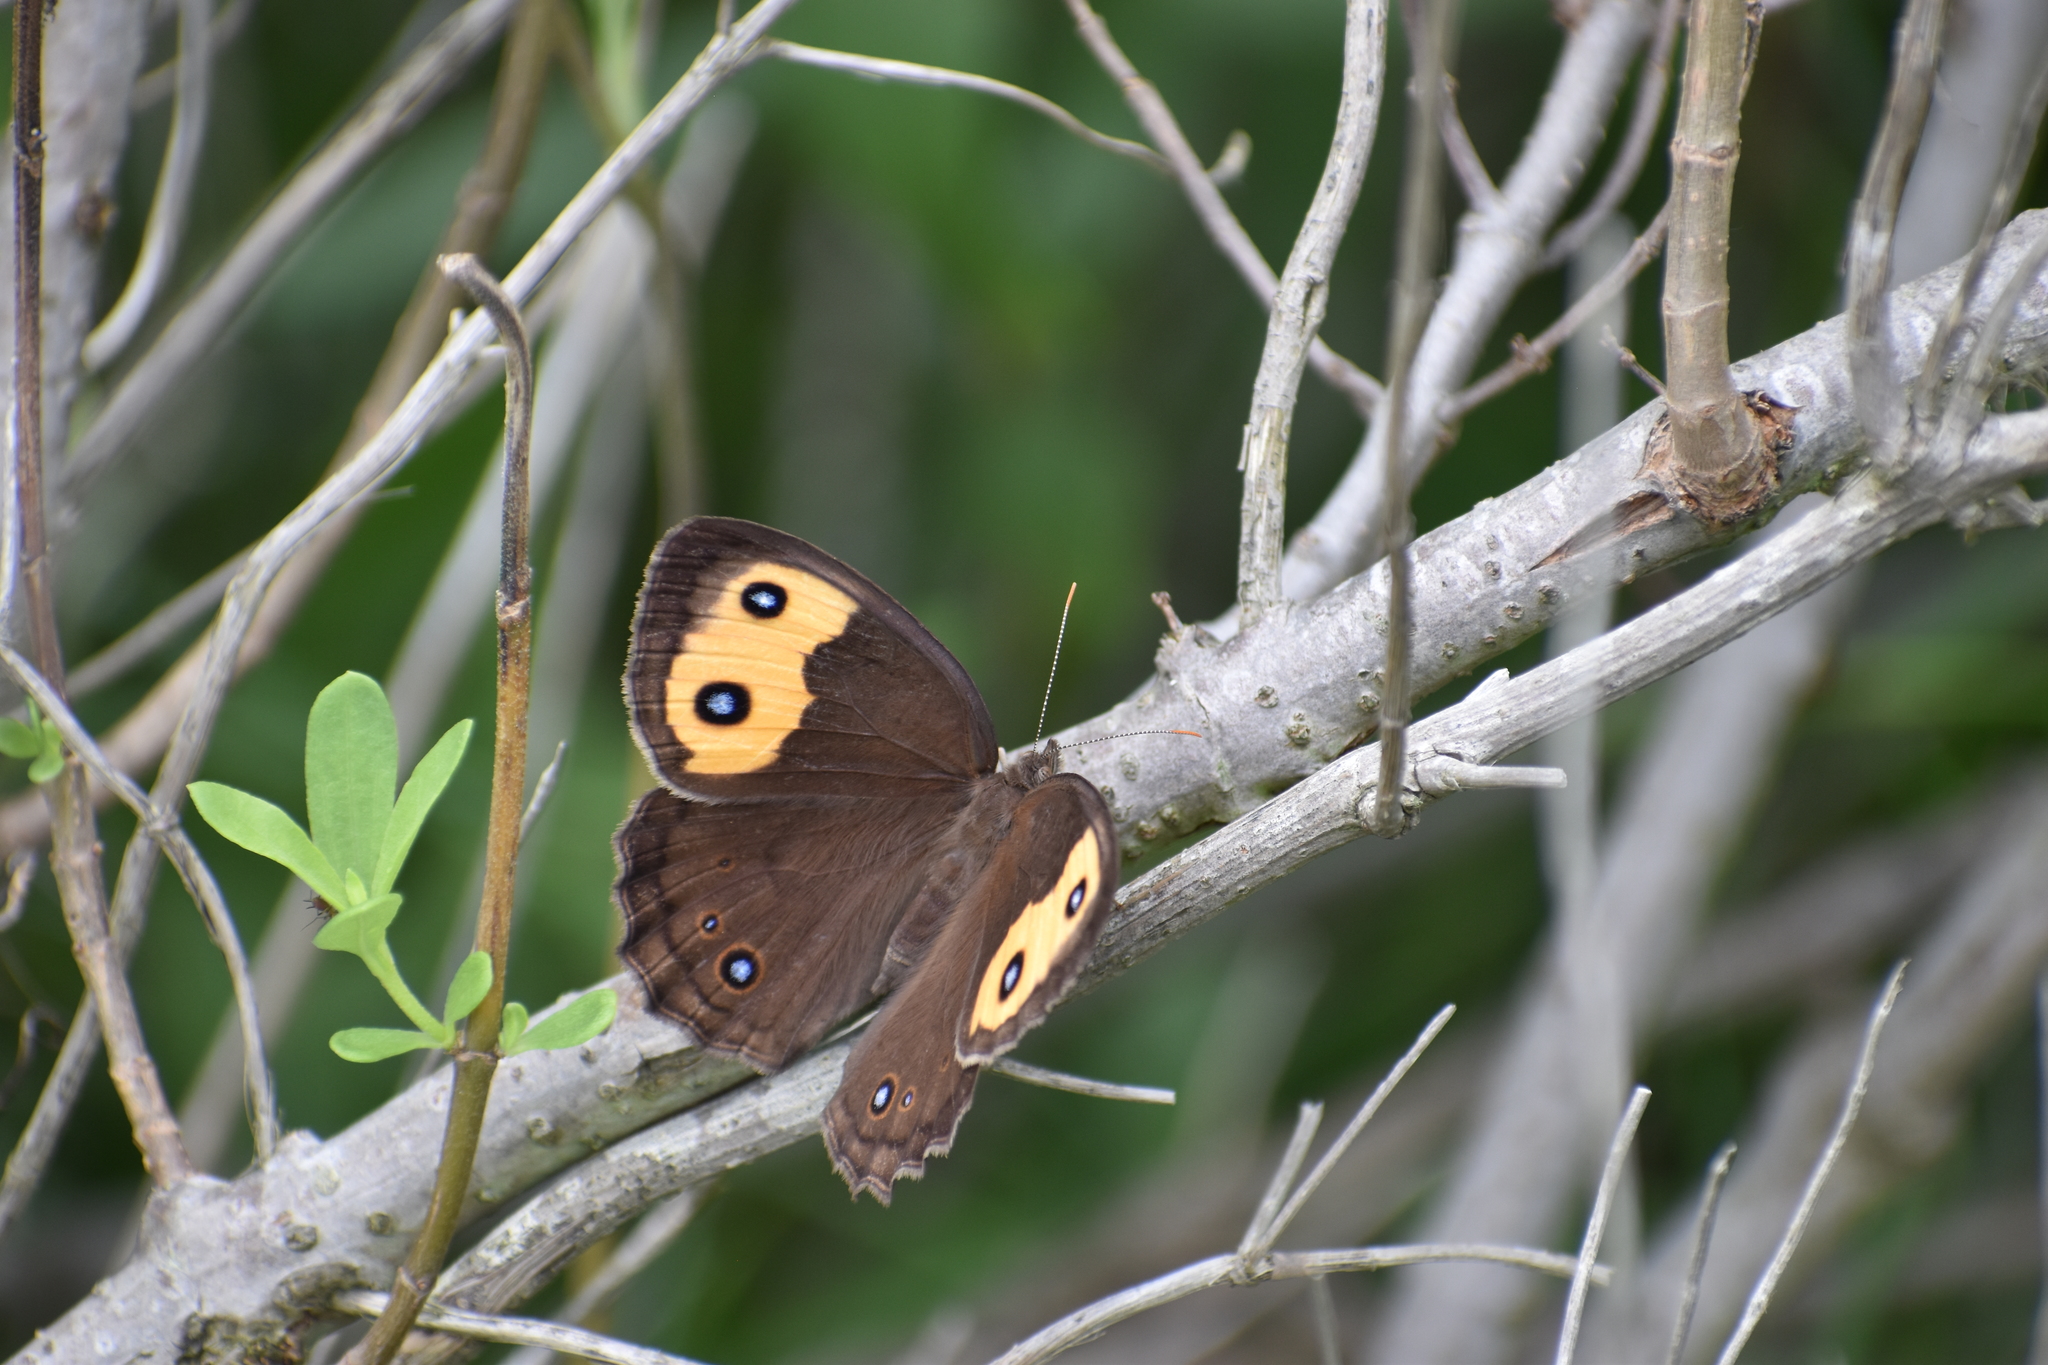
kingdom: Animalia
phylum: Arthropoda
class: Insecta
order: Lepidoptera
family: Nymphalidae
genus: Cercyonis
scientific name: Cercyonis pegala
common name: Common wood-nymph
